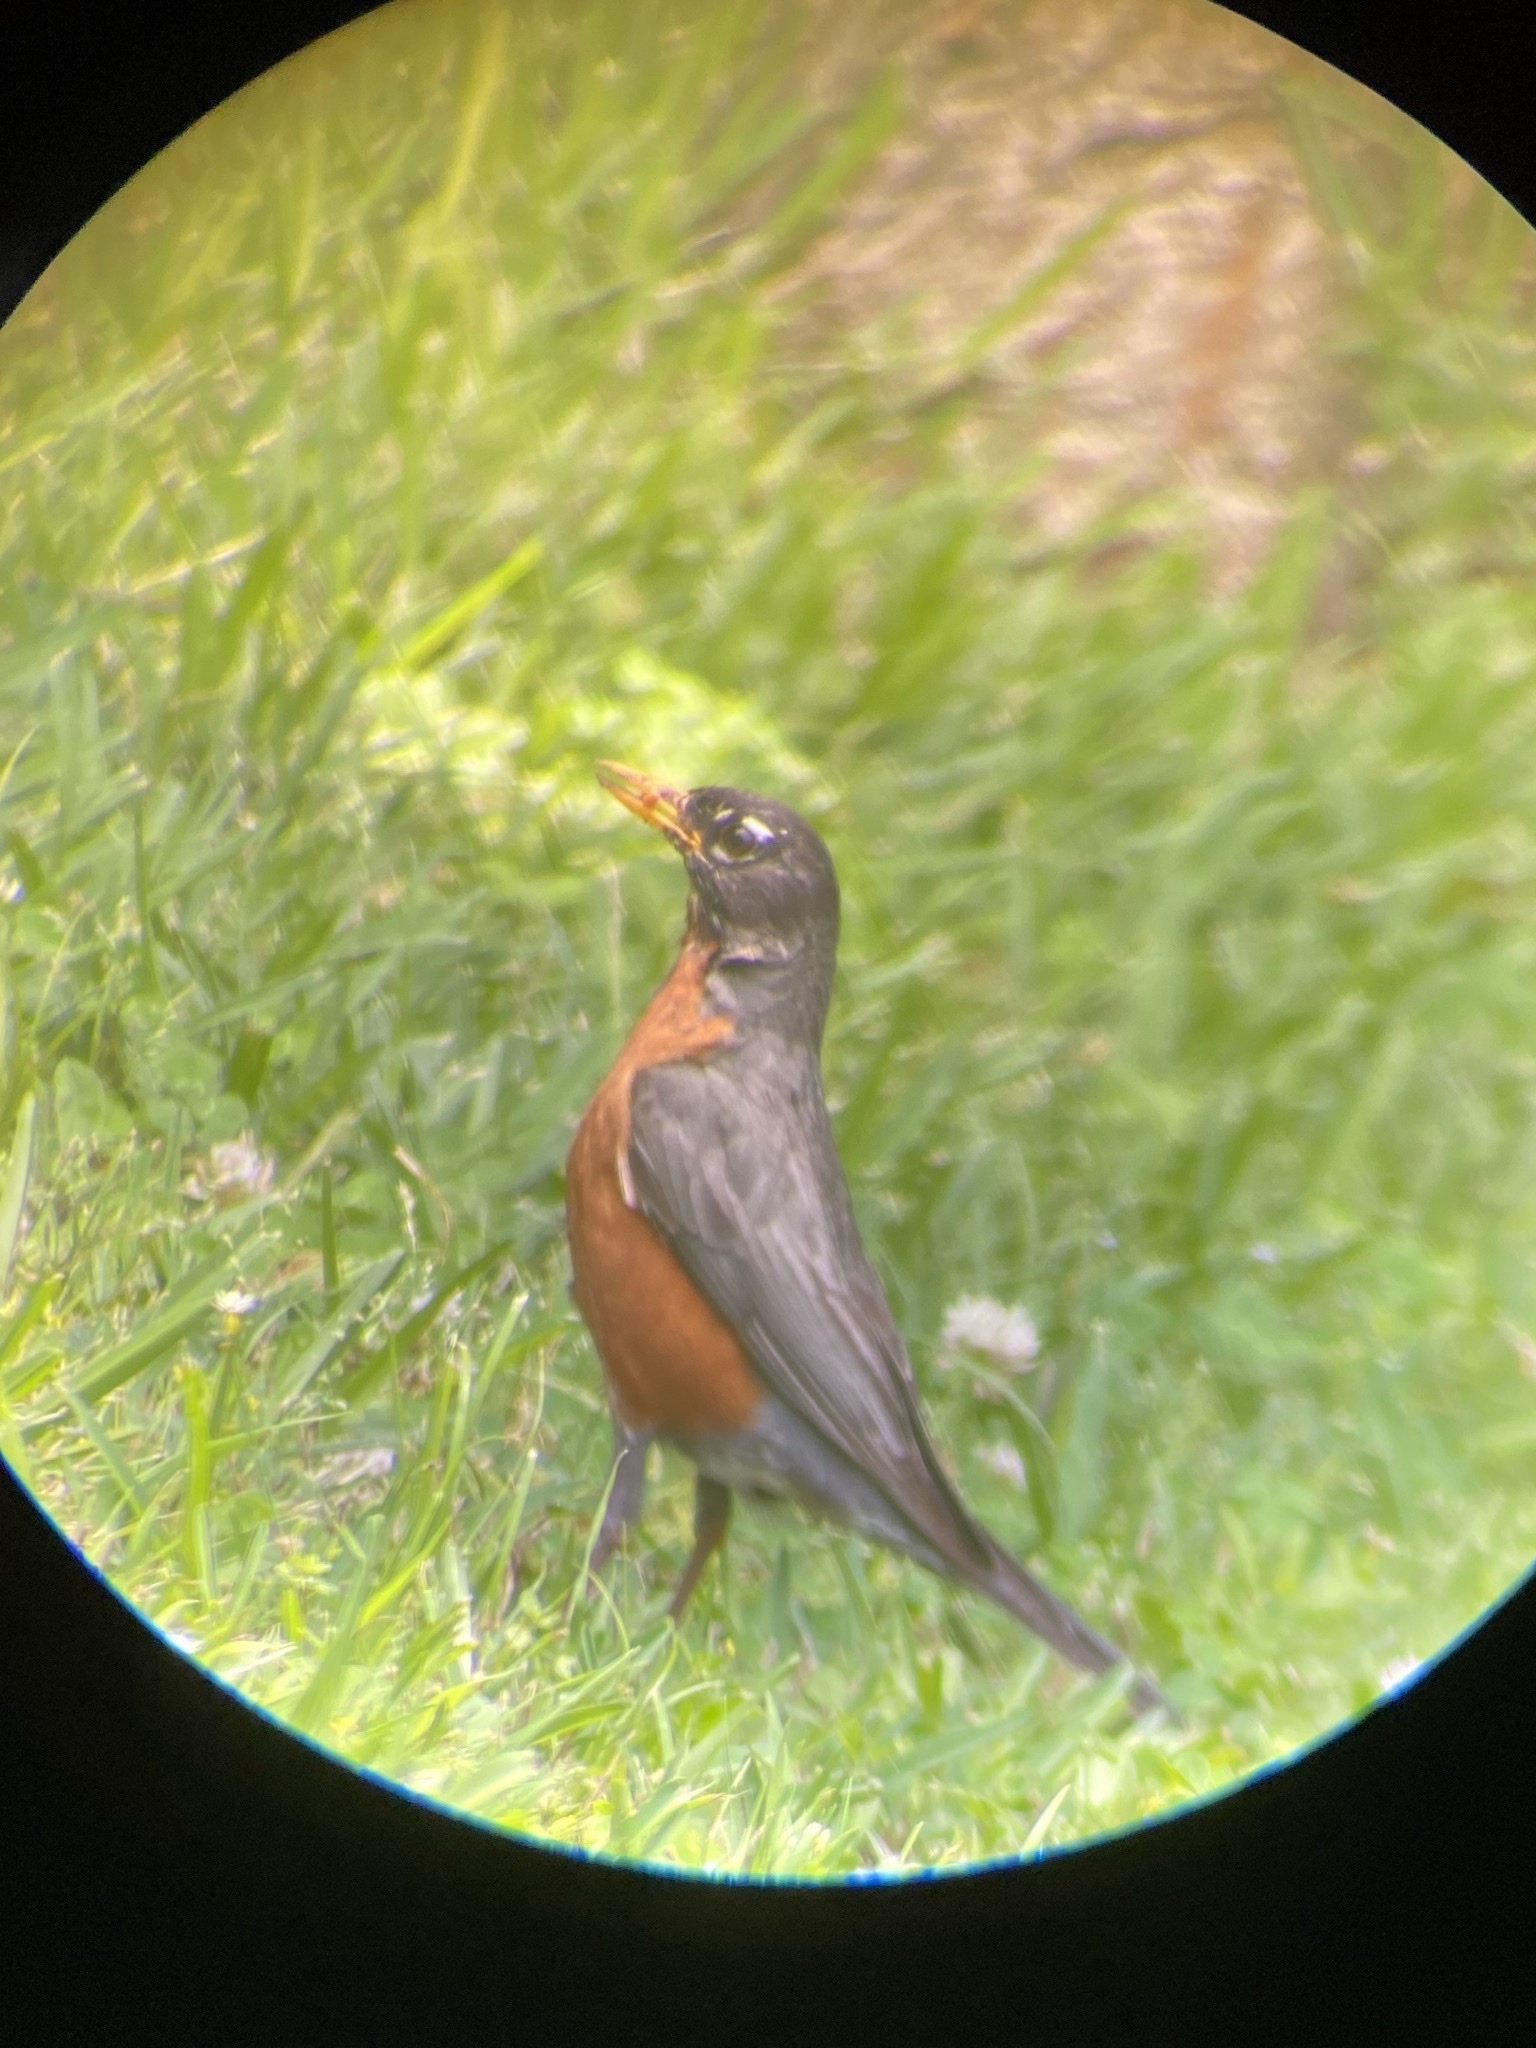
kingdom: Animalia
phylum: Chordata
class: Aves
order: Passeriformes
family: Turdidae
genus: Turdus
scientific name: Turdus migratorius
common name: American robin
